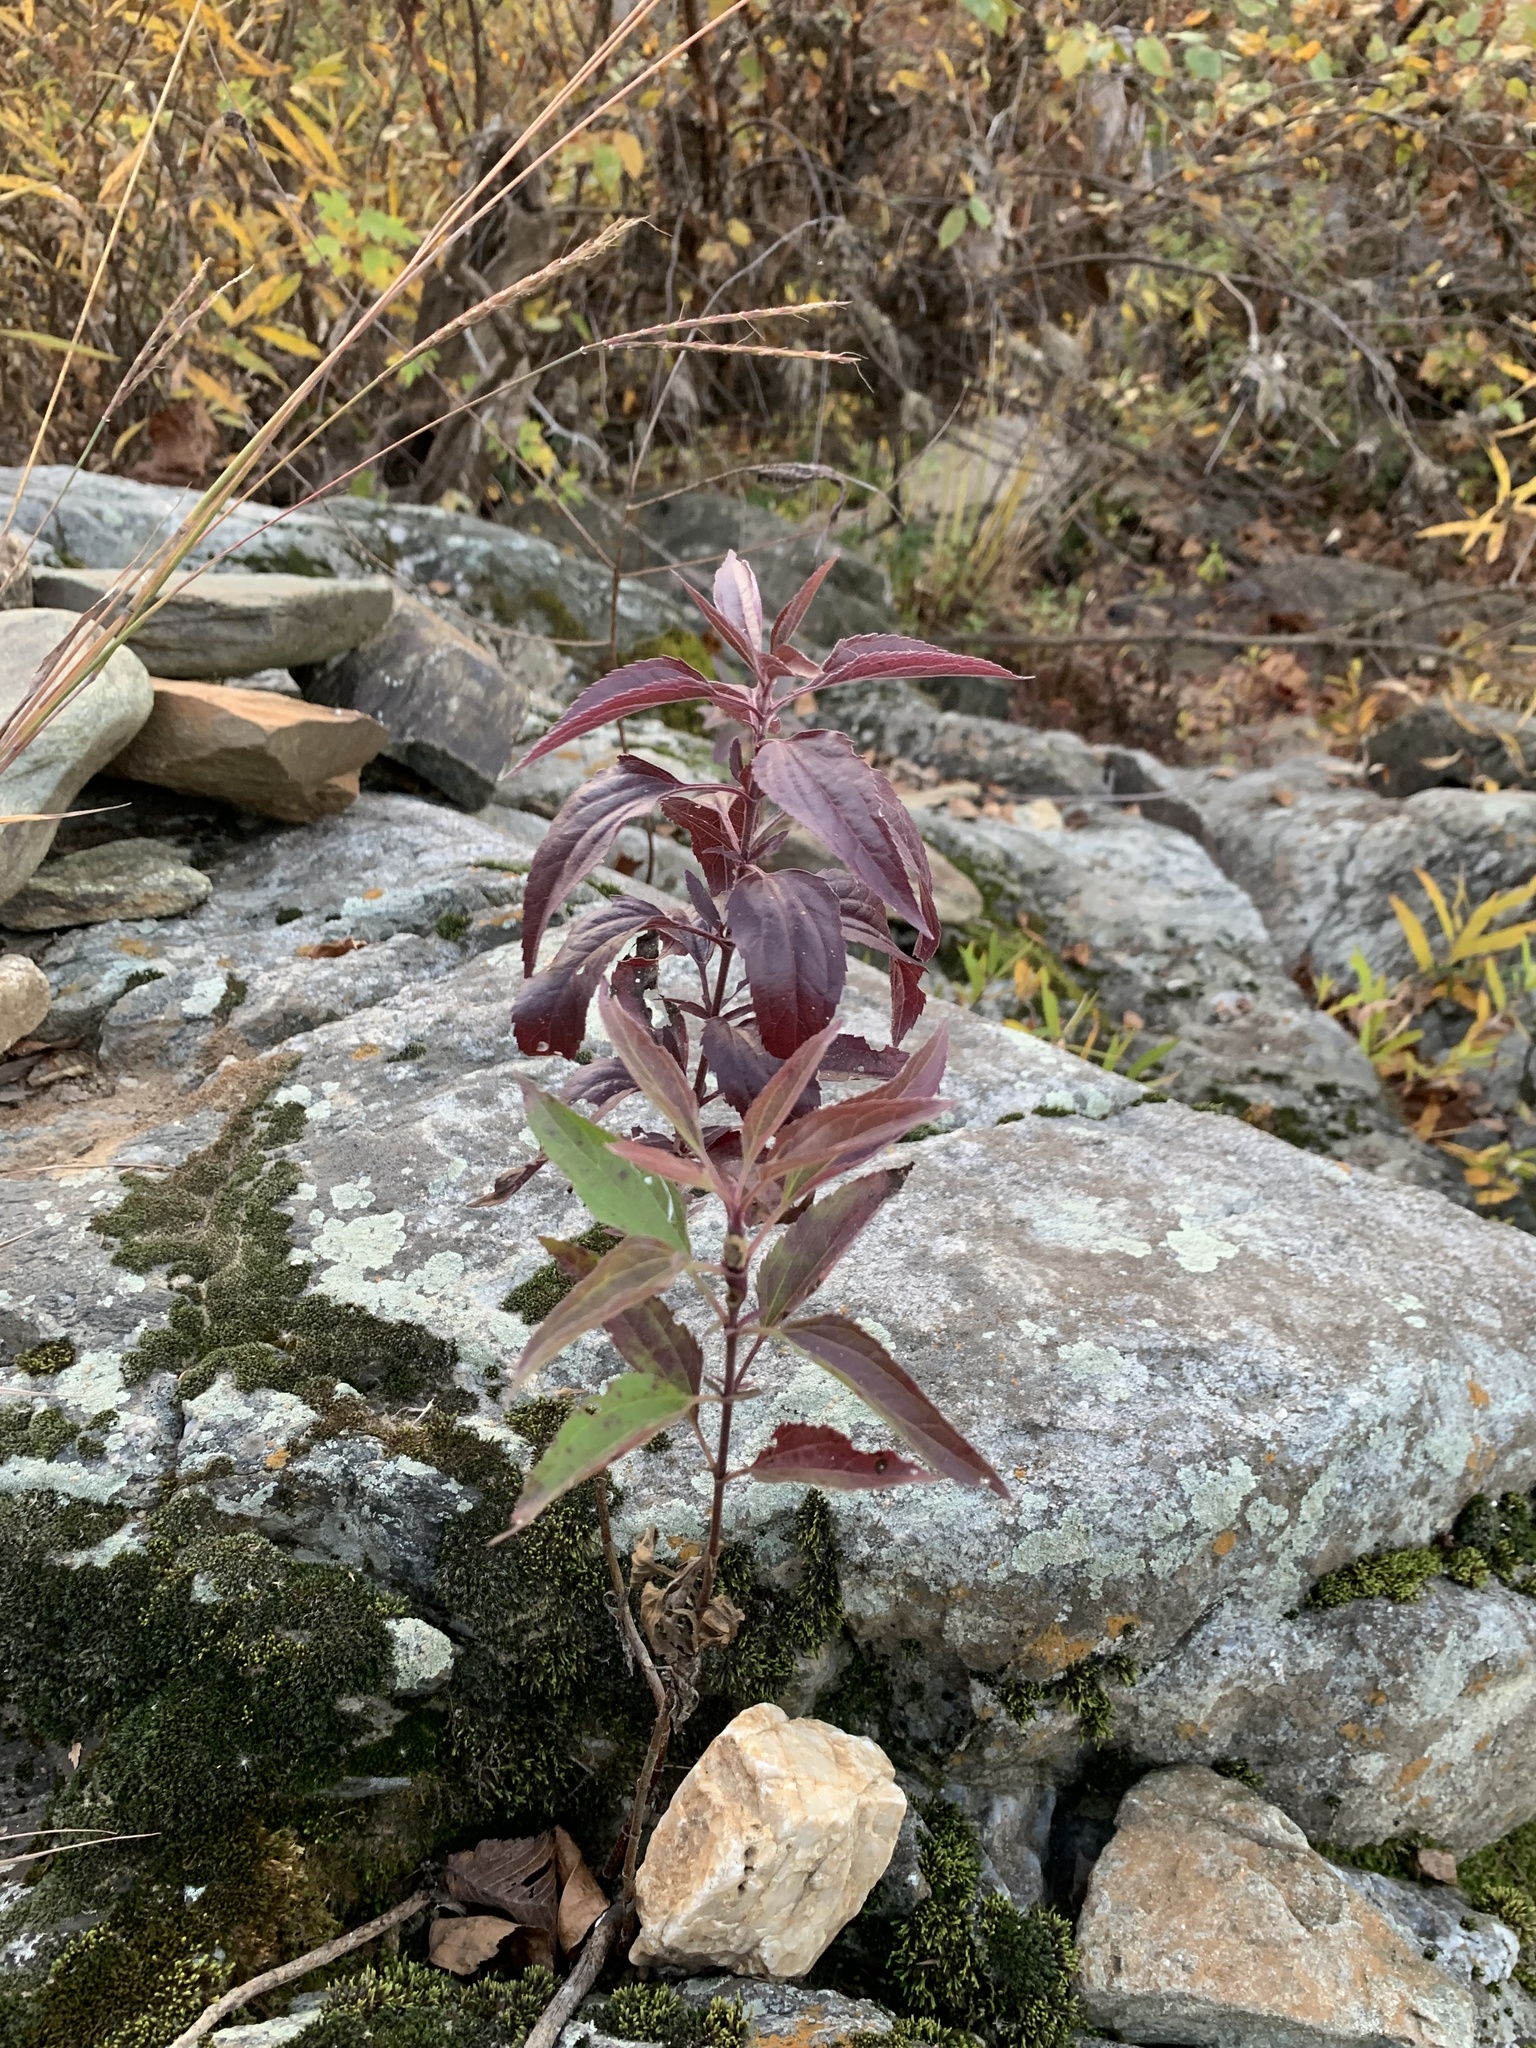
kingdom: Plantae
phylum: Tracheophyta
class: Magnoliopsida
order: Asterales
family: Asteraceae
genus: Eupatorium
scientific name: Eupatorium serotinum
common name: Late boneset
